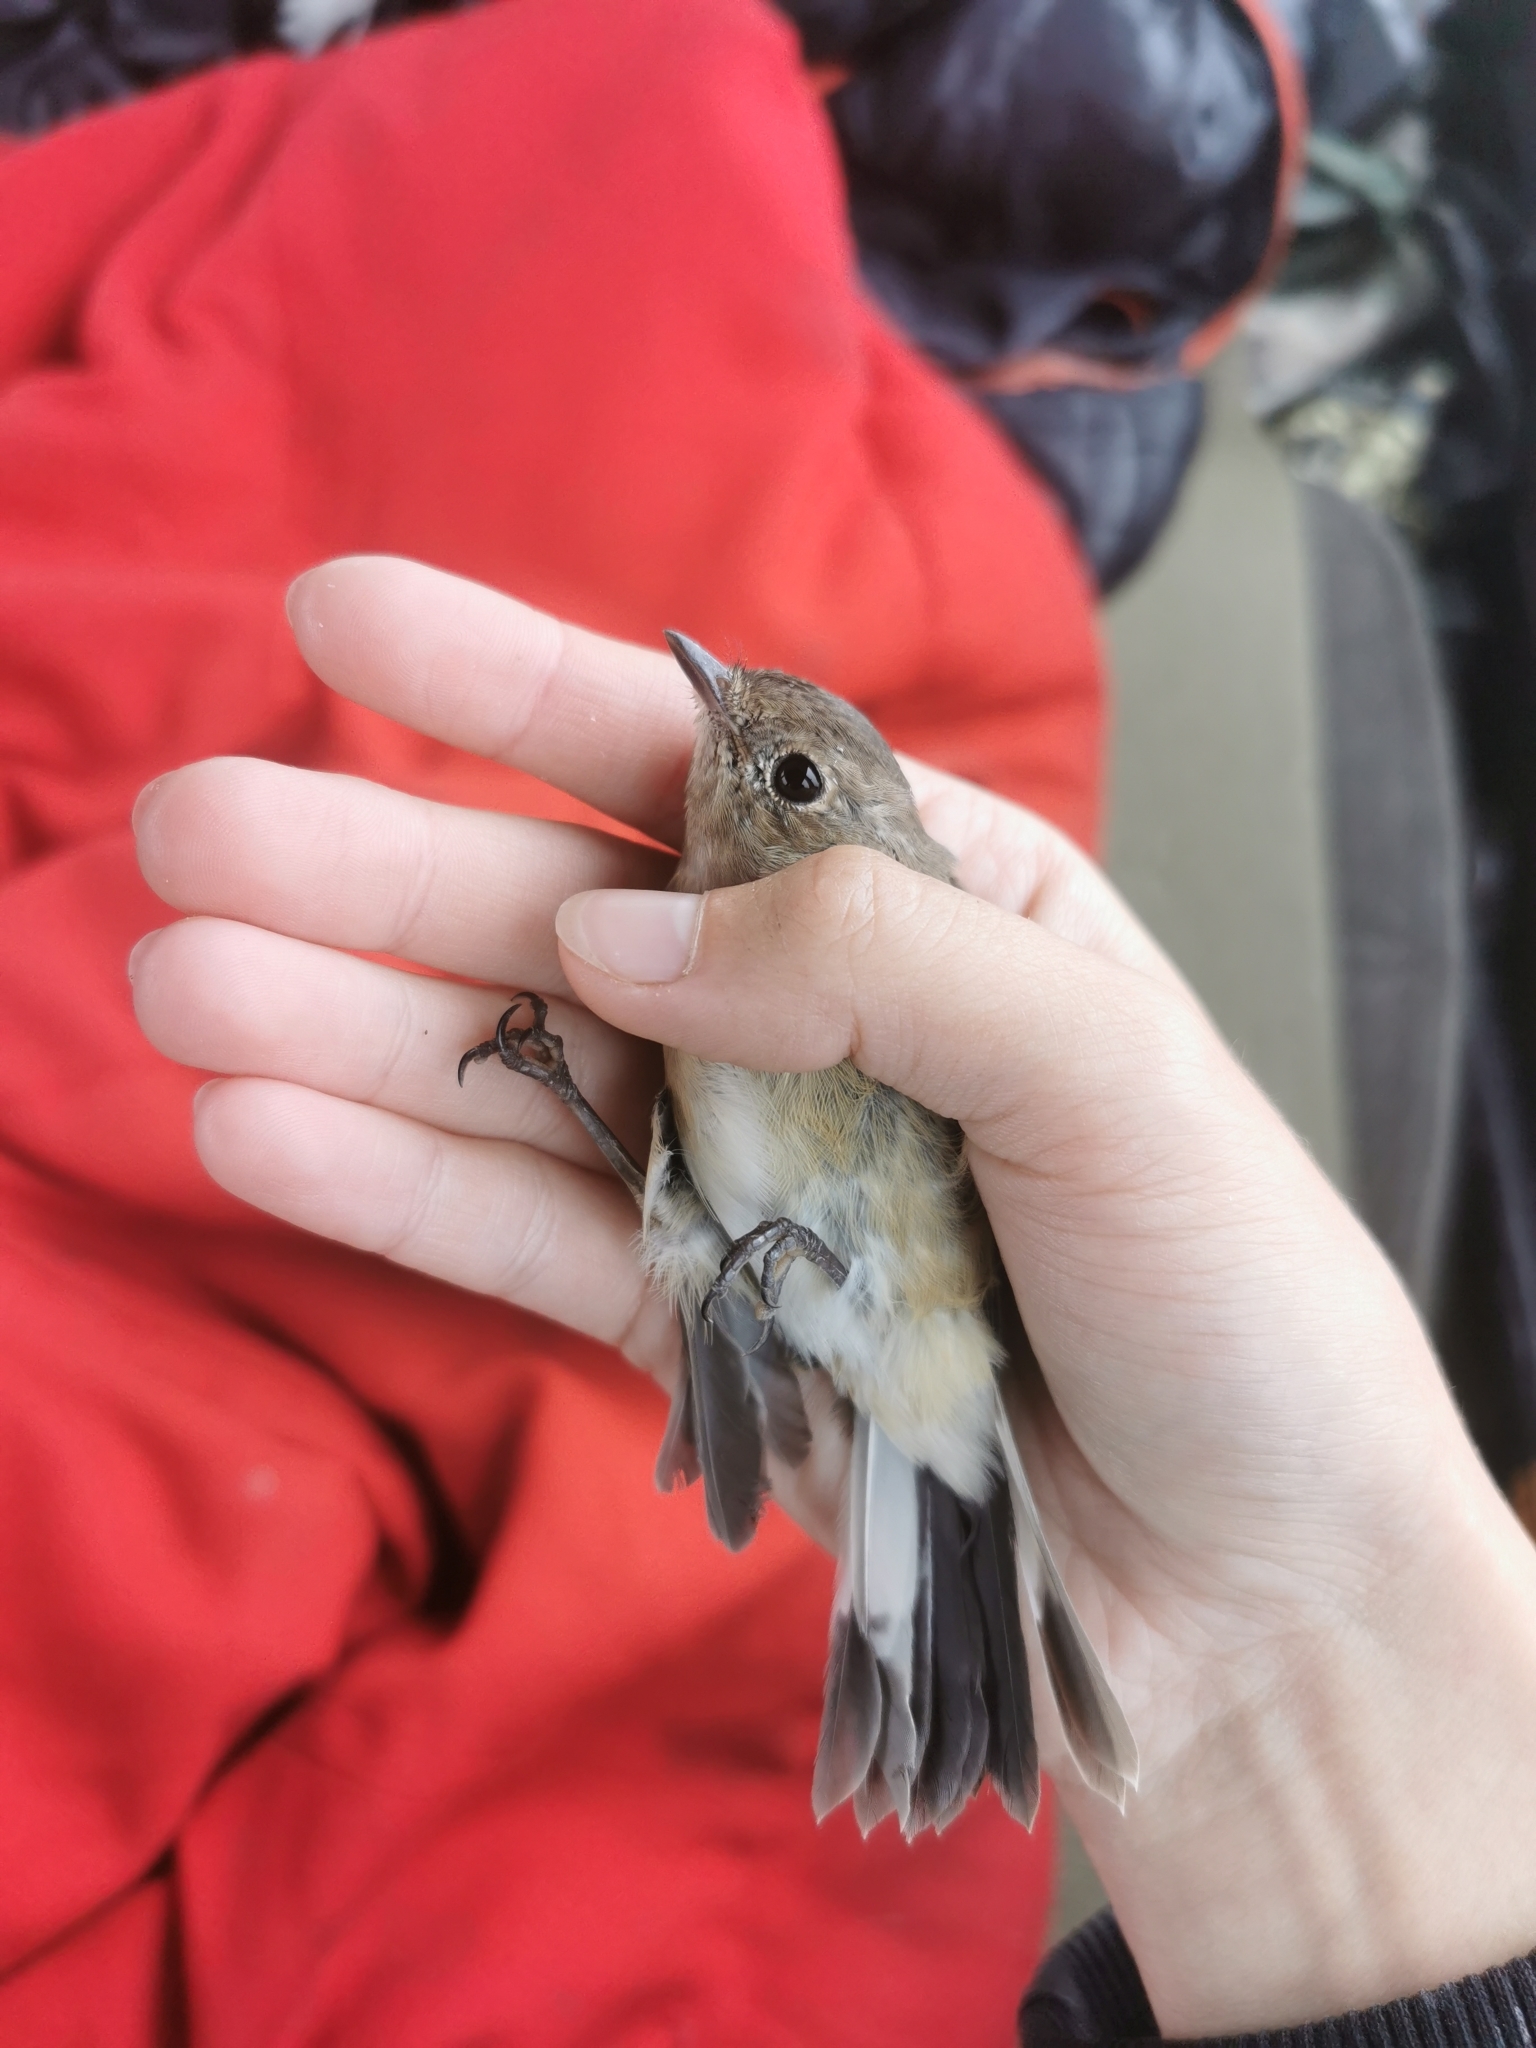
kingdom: Animalia
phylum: Chordata
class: Aves
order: Passeriformes
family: Muscicapidae
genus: Ficedula
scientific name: Ficedula albicilla
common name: Taiga flycatcher
